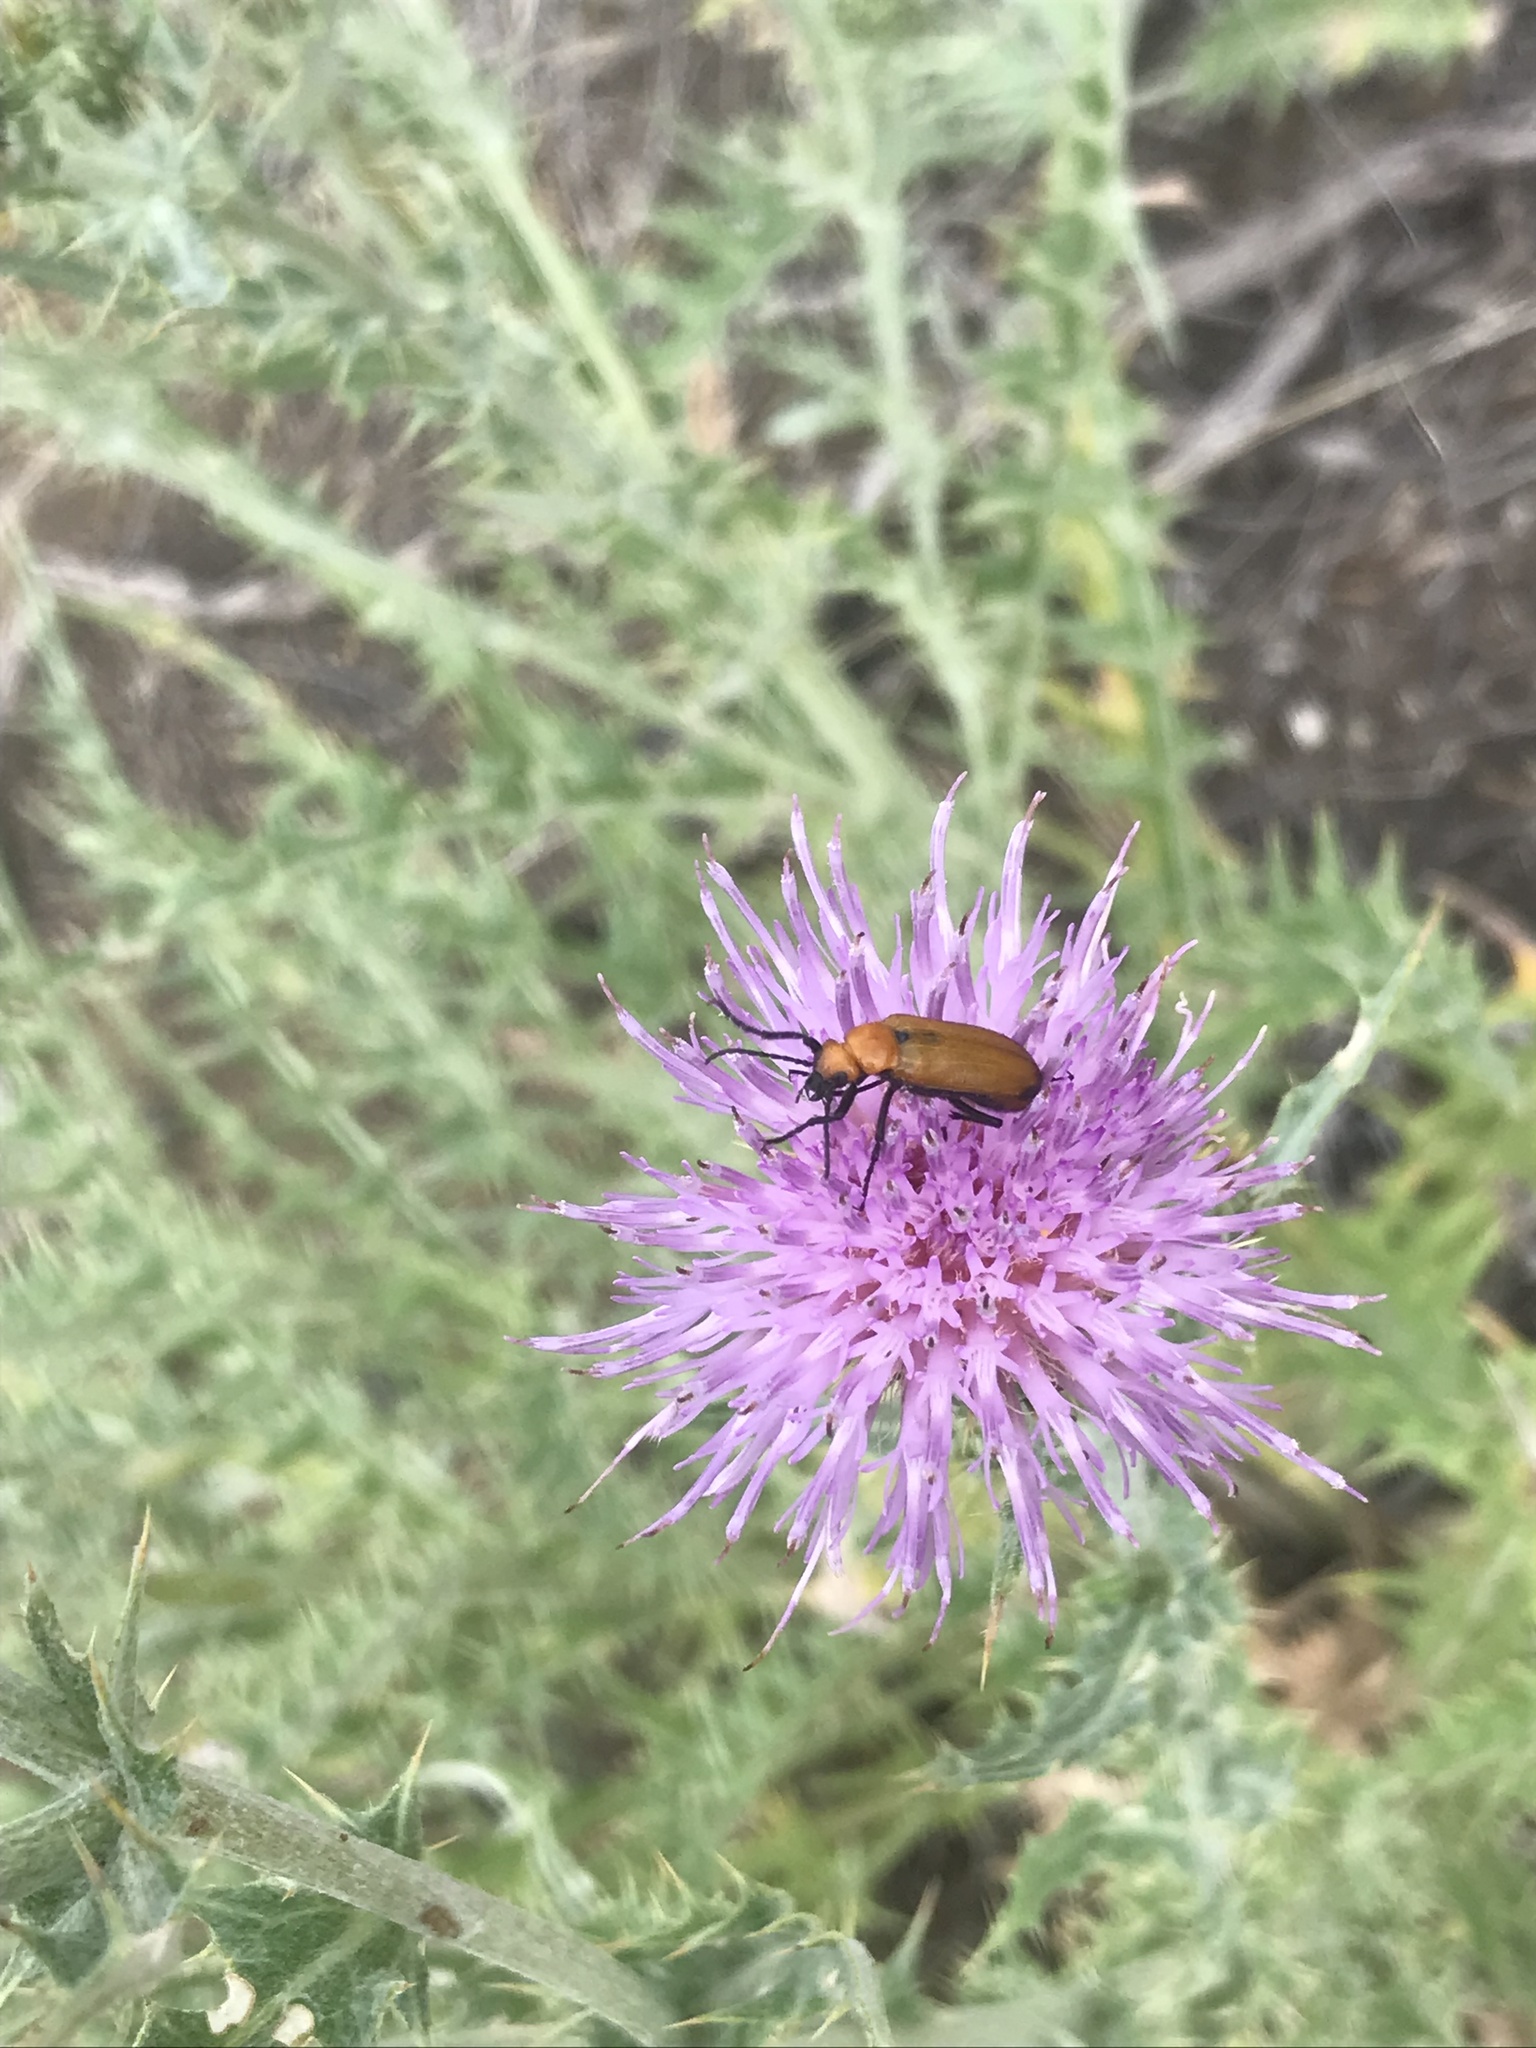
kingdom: Animalia
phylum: Arthropoda
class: Insecta
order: Coleoptera
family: Meloidae
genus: Nemognatha
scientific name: Nemognatha lutea
